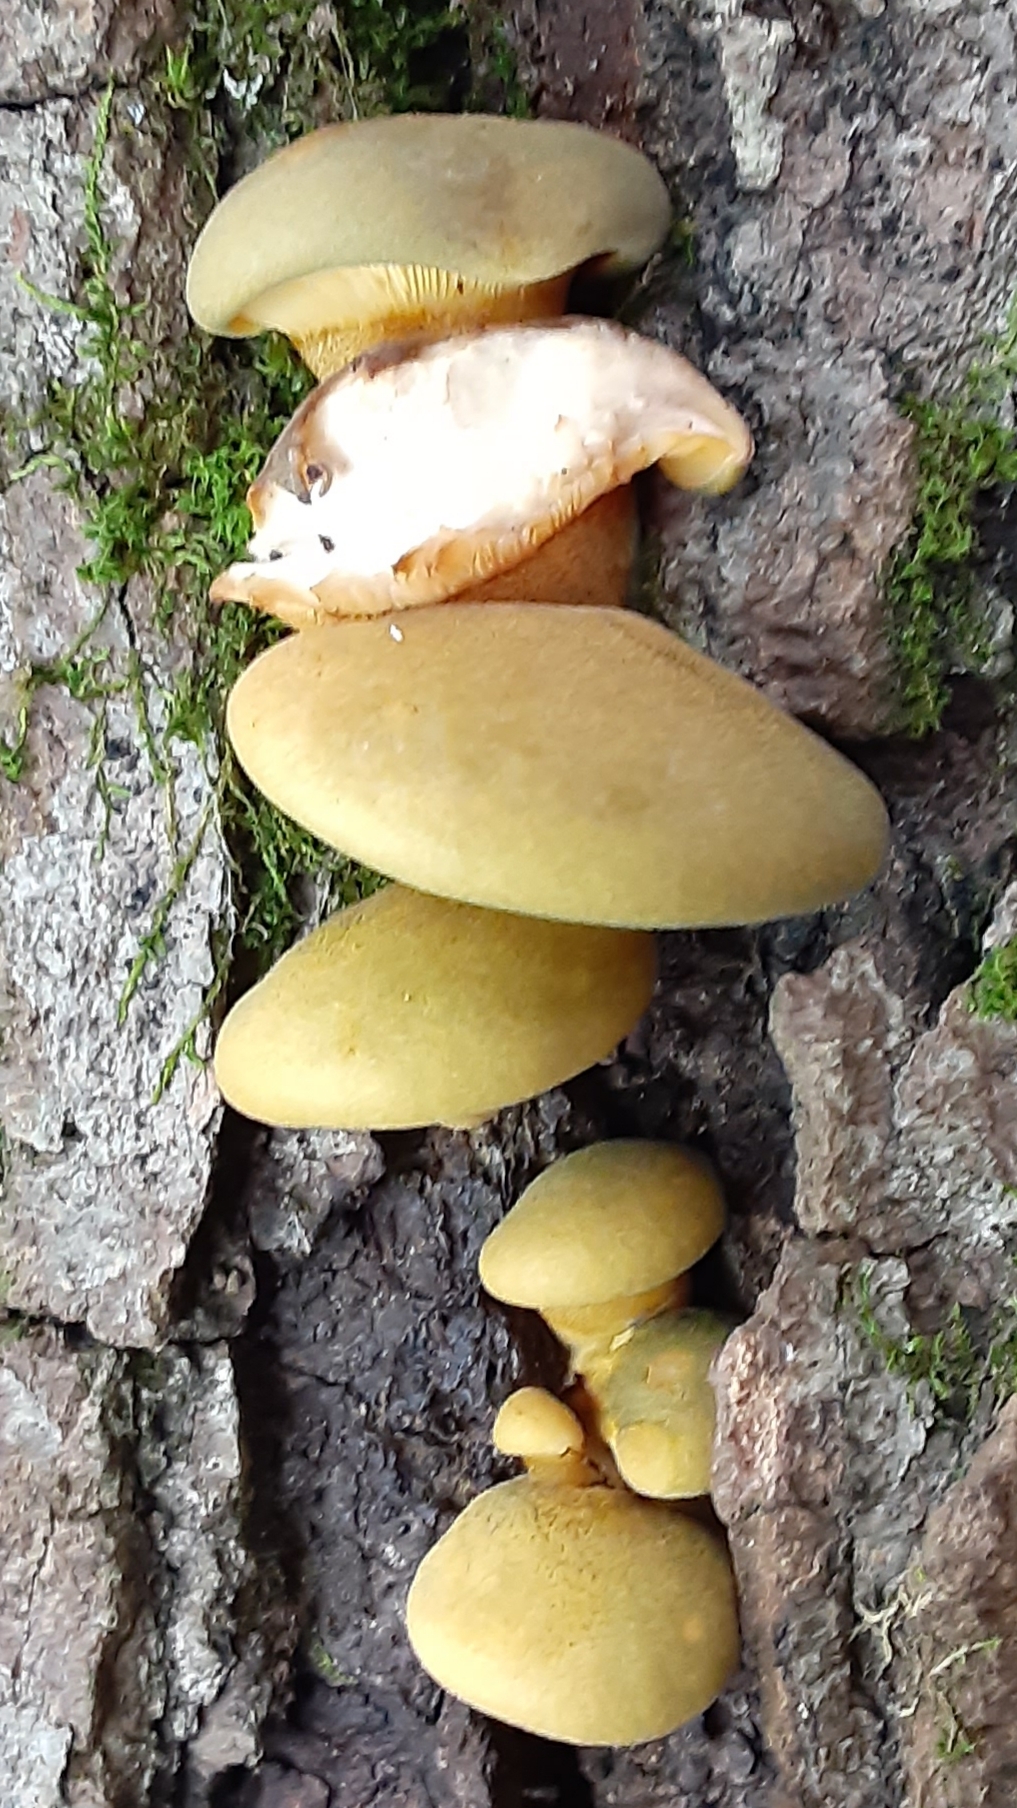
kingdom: Fungi
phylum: Basidiomycota
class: Agaricomycetes
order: Agaricales
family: Sarcomyxaceae
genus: Sarcomyxa
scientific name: Sarcomyxa serotina
